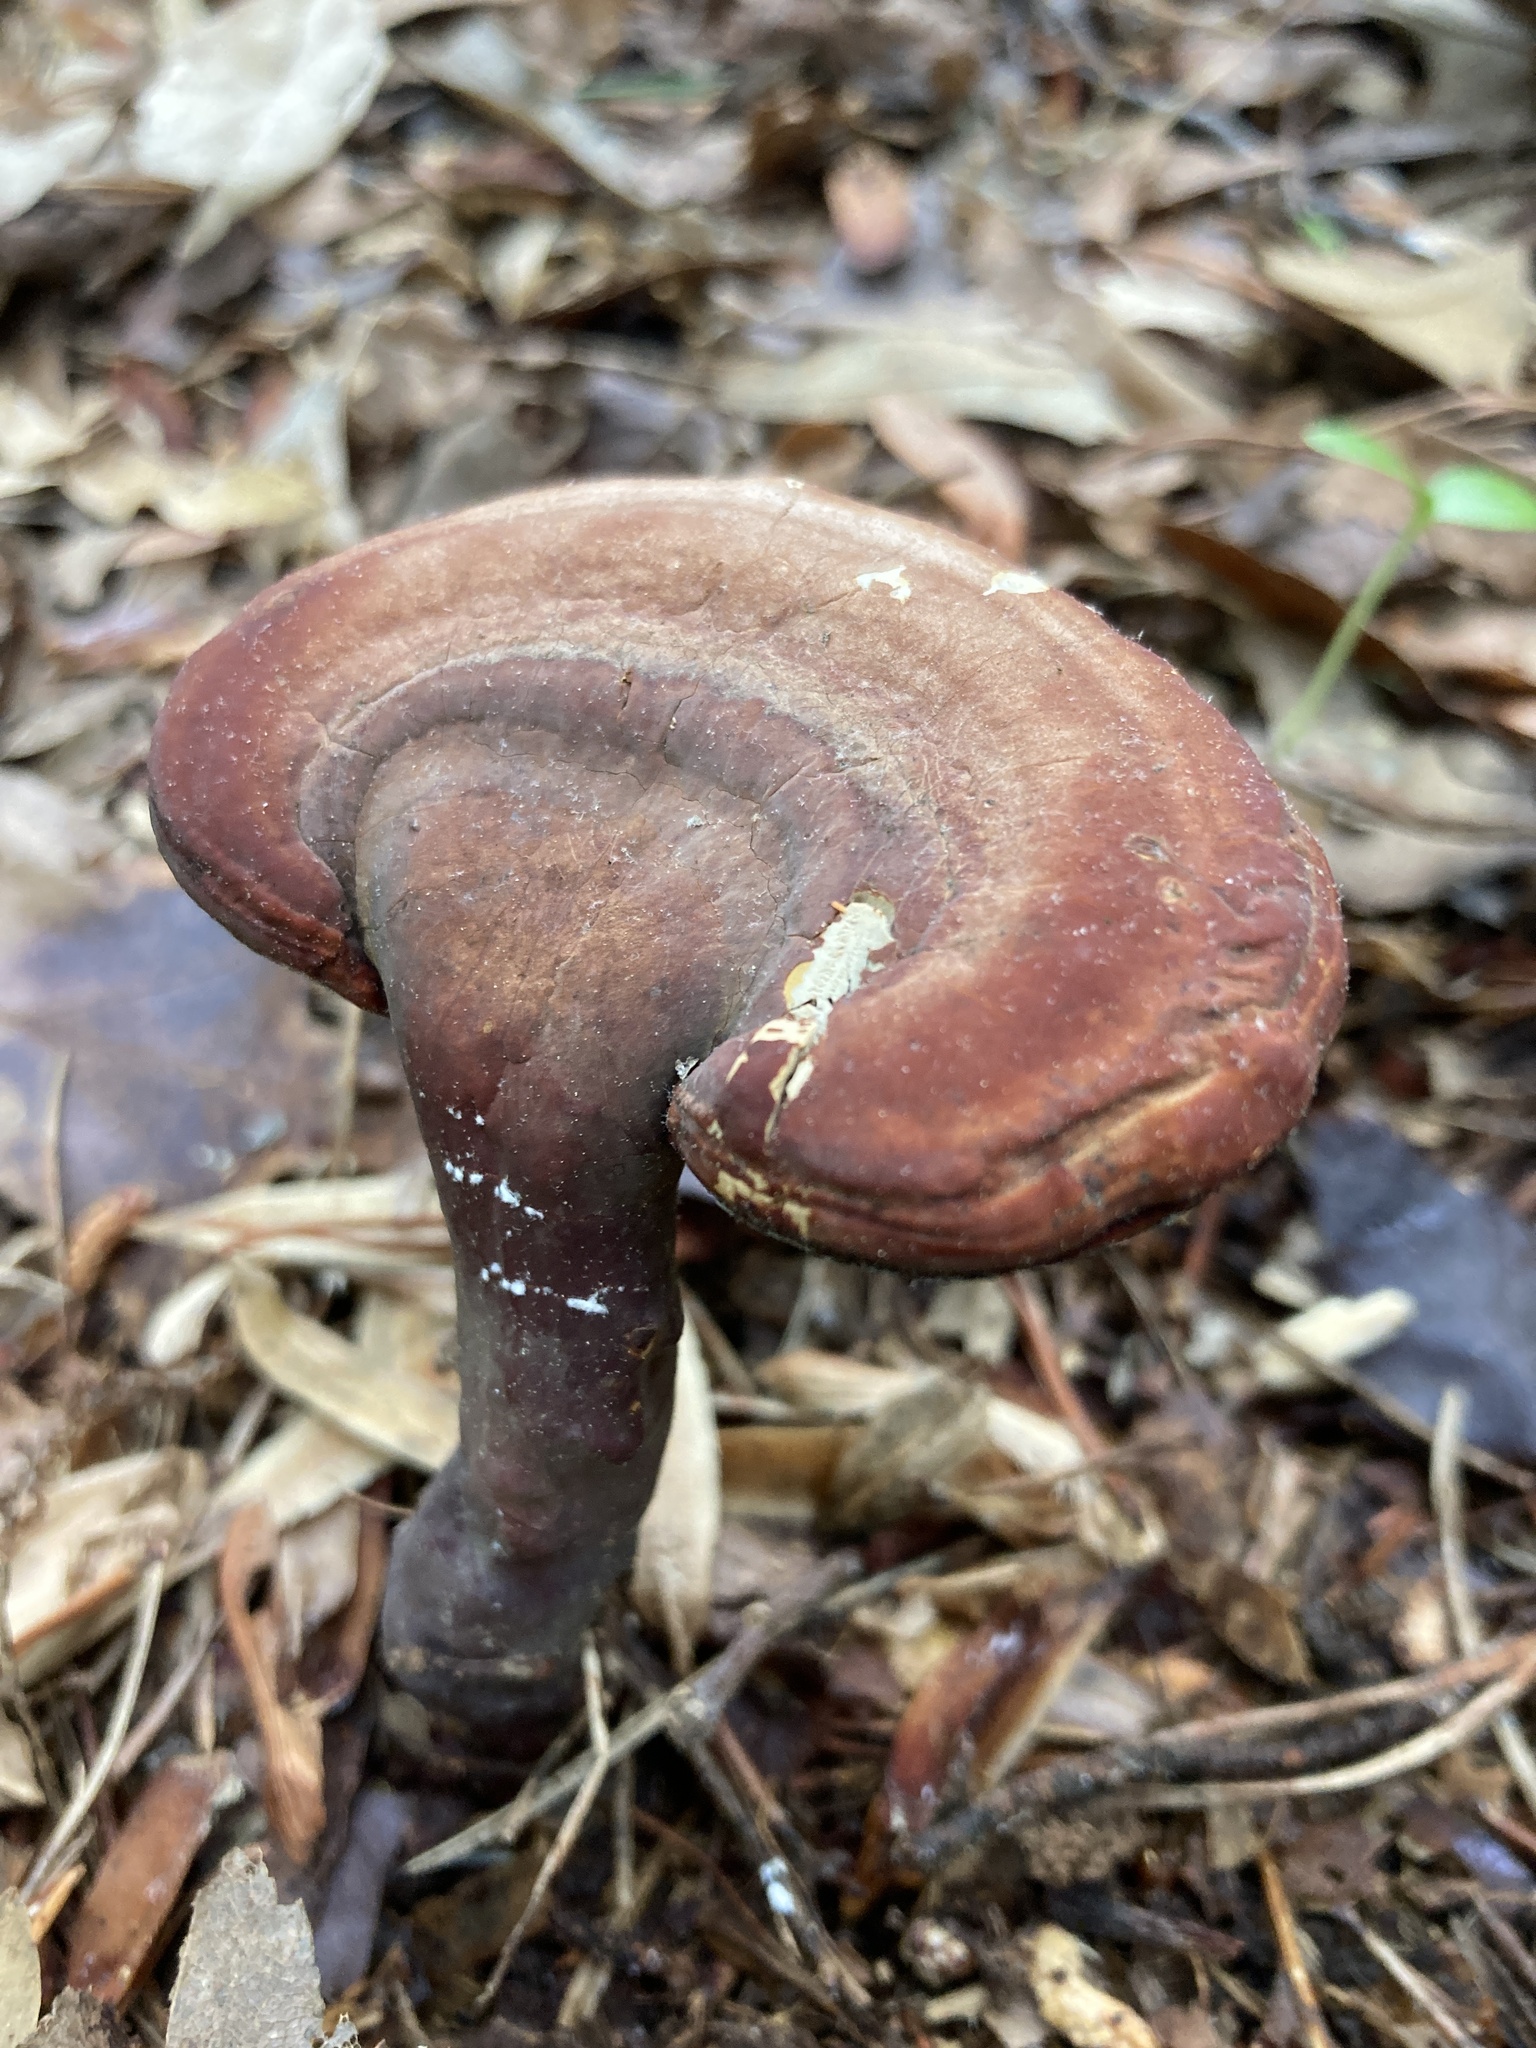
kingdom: Fungi
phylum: Basidiomycota
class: Agaricomycetes
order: Polyporales
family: Polyporaceae
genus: Ganoderma
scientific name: Ganoderma curtisii
